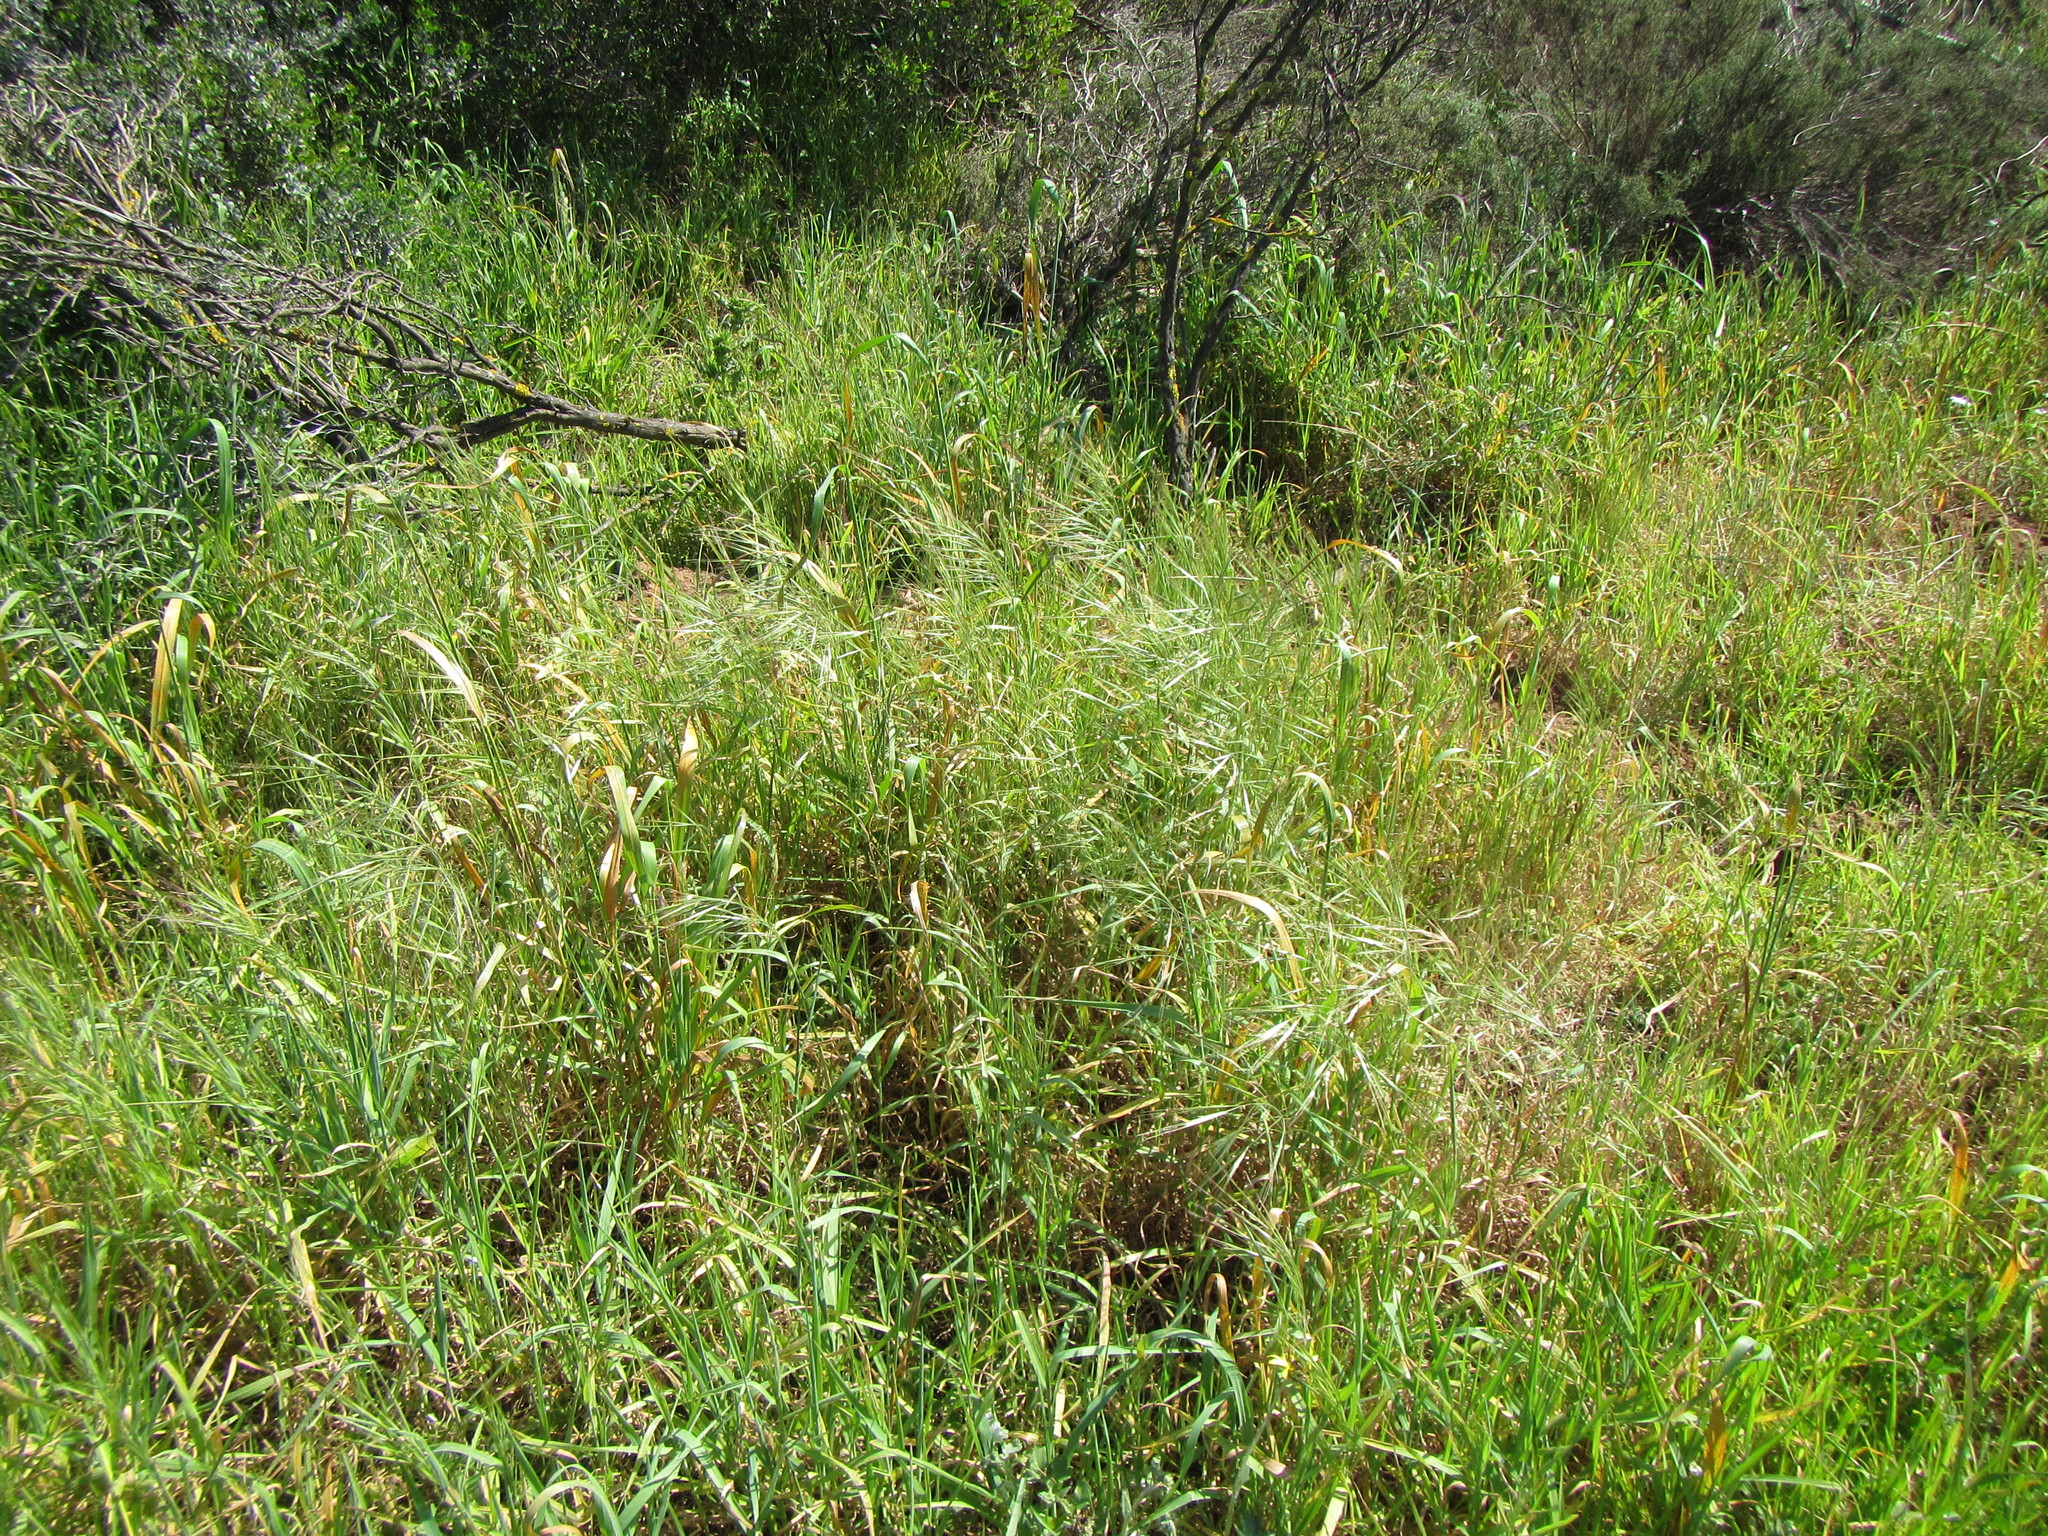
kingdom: Plantae
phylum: Tracheophyta
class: Liliopsida
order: Poales
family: Poaceae
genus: Bromus
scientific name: Bromus diandrus
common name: Ripgut brome
